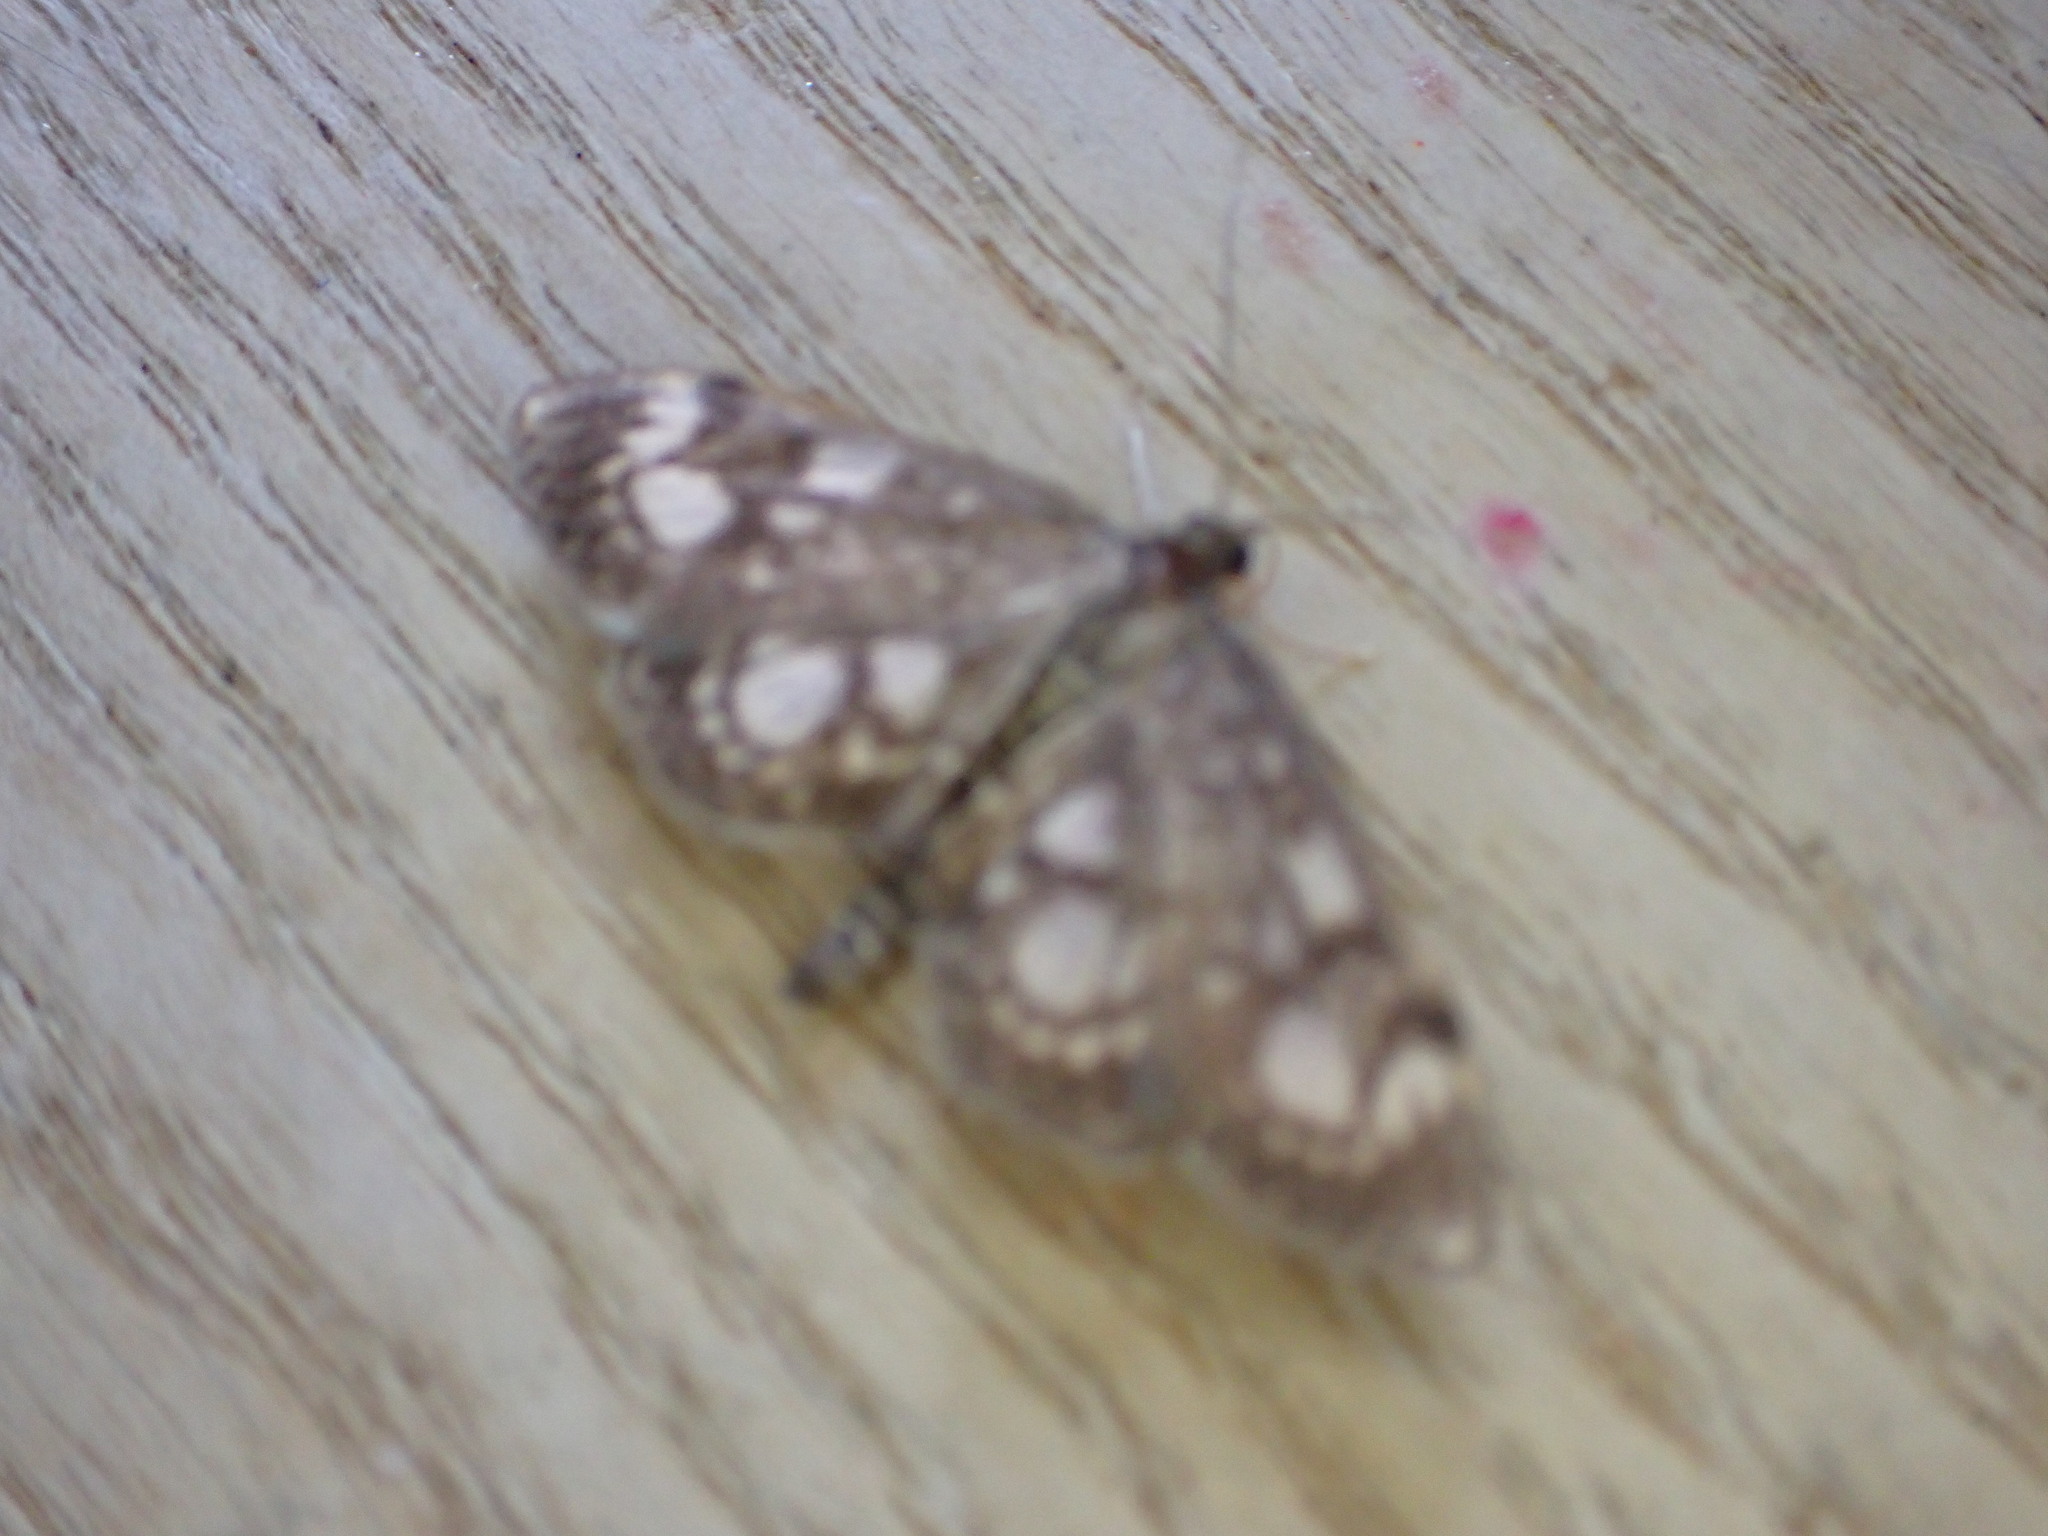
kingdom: Animalia
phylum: Arthropoda
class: Insecta
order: Lepidoptera
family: Crambidae
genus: Anania
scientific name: Anania coronata
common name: Elder pearl
